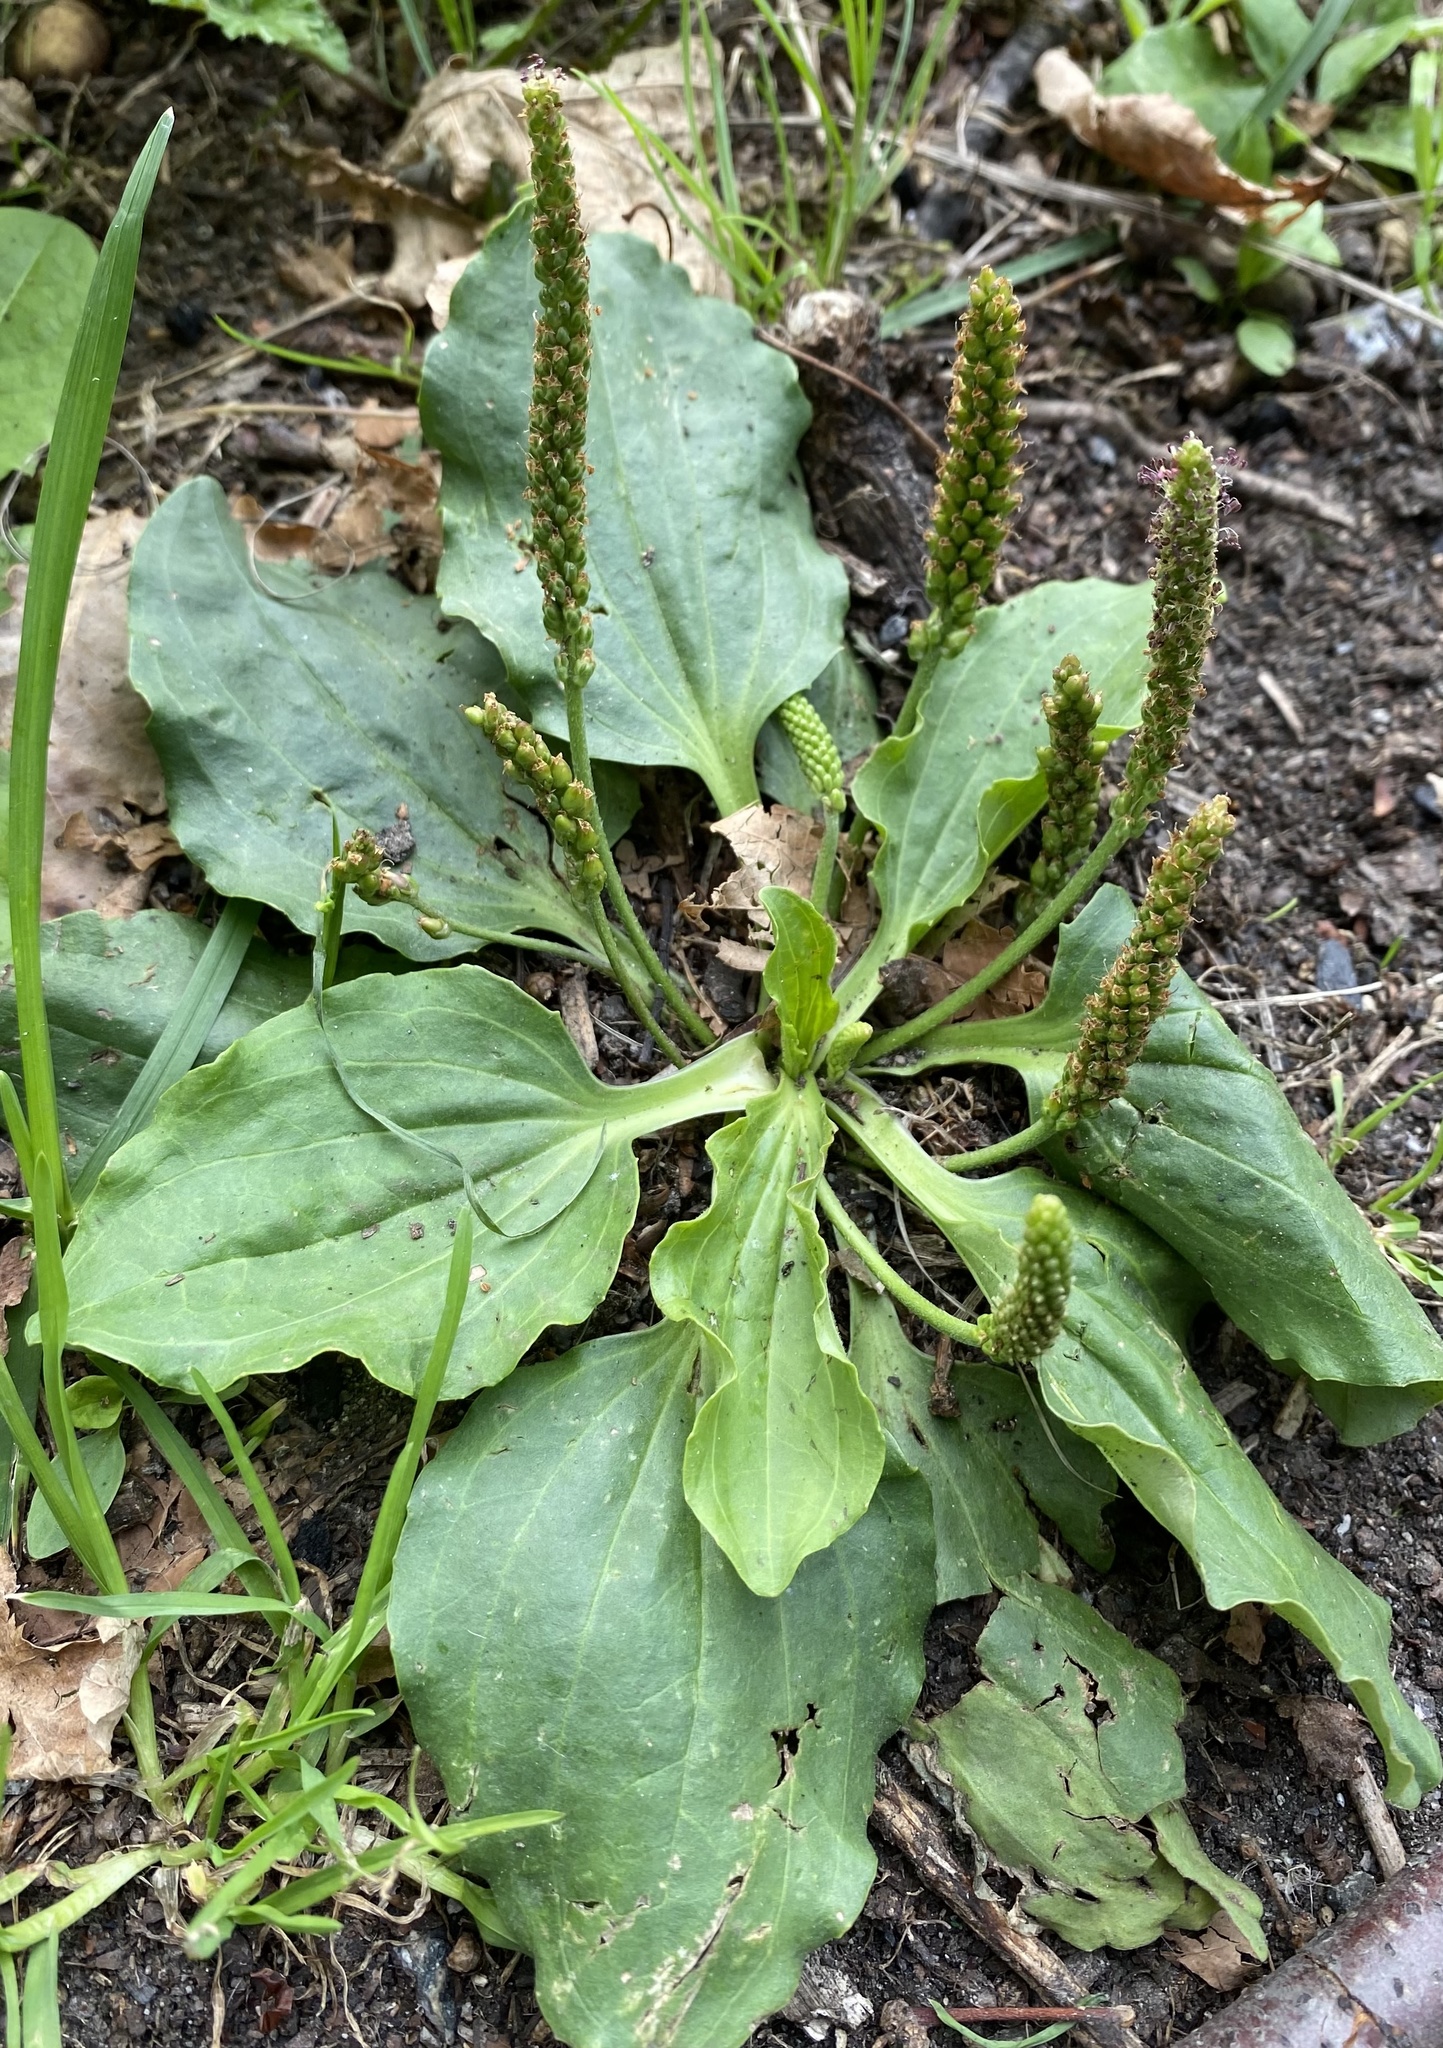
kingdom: Plantae
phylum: Tracheophyta
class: Magnoliopsida
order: Lamiales
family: Plantaginaceae
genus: Plantago
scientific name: Plantago major
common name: Common plantain
